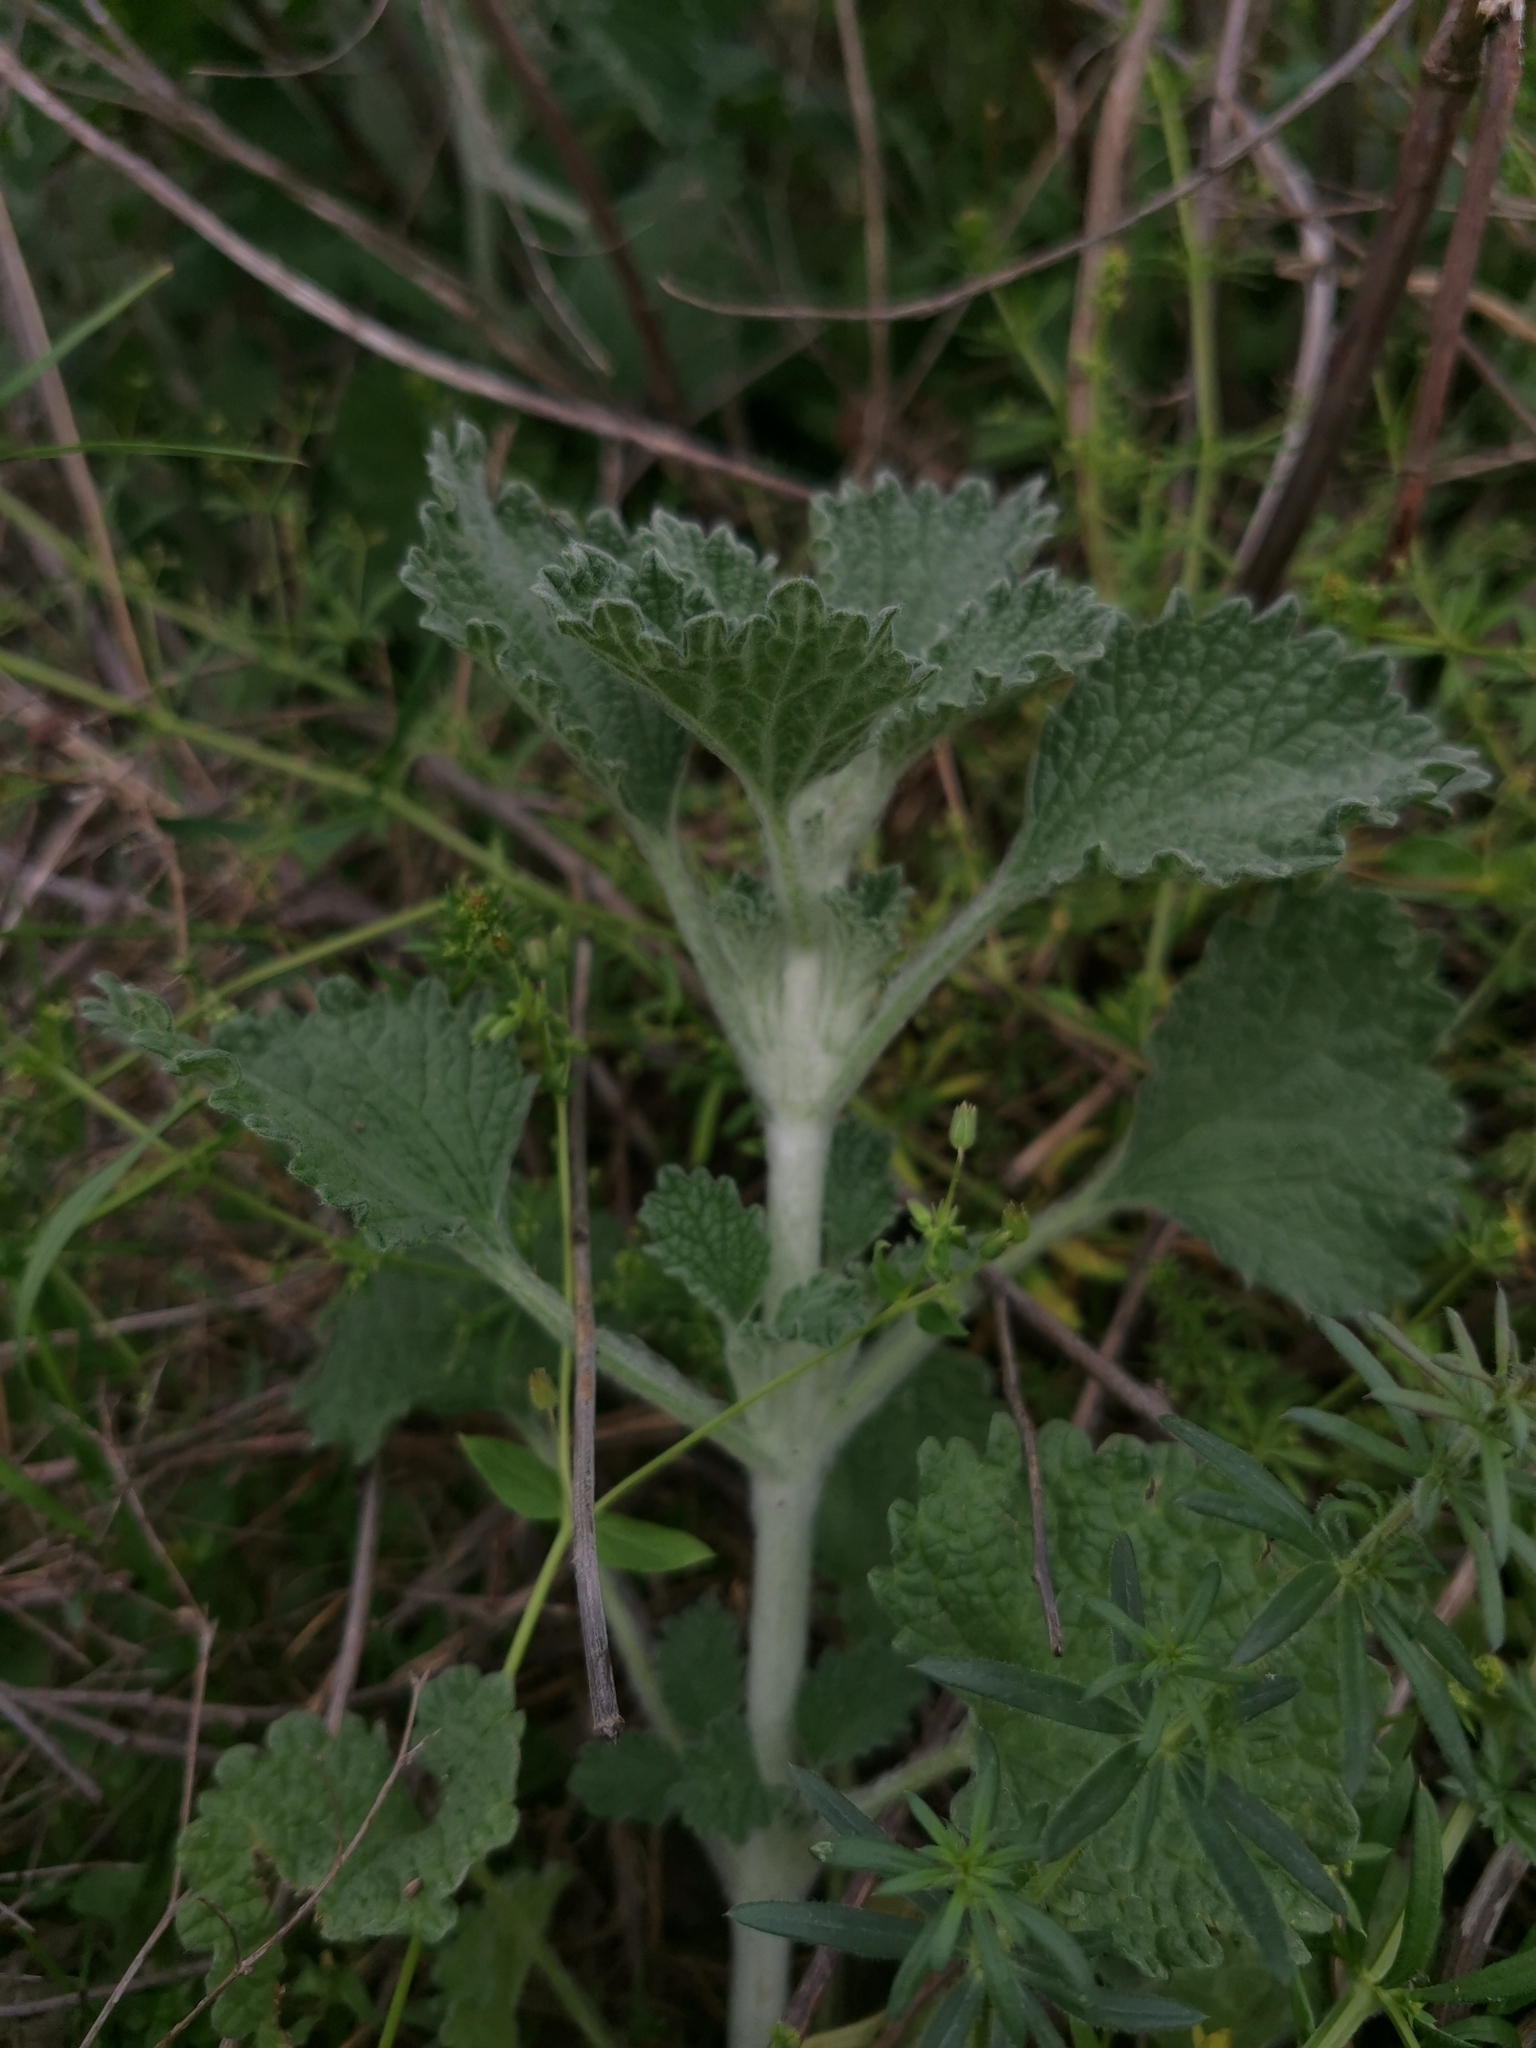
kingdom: Plantae
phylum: Tracheophyta
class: Magnoliopsida
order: Lamiales
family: Lamiaceae
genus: Marrubium
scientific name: Marrubium vulgare
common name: Horehound
